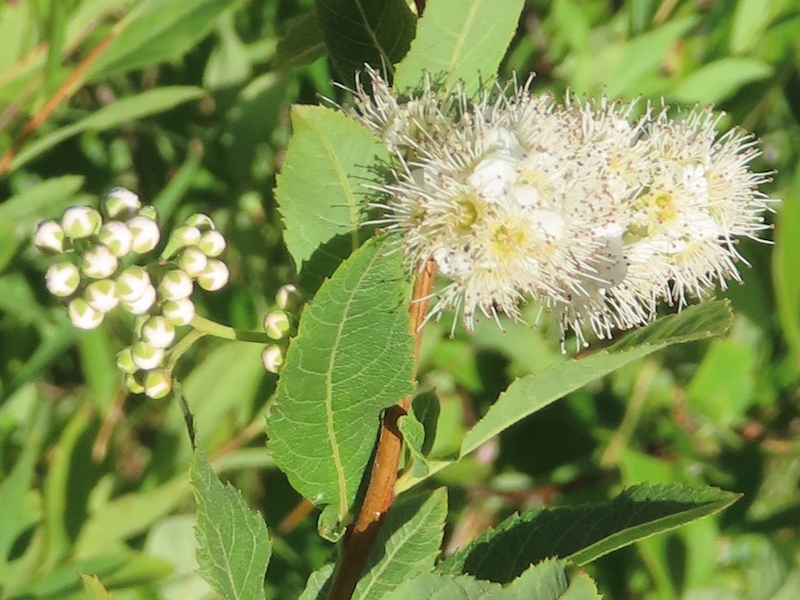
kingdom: Plantae
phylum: Tracheophyta
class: Magnoliopsida
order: Rosales
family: Rosaceae
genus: Spiraea
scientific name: Spiraea alba
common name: Pale bridewort
